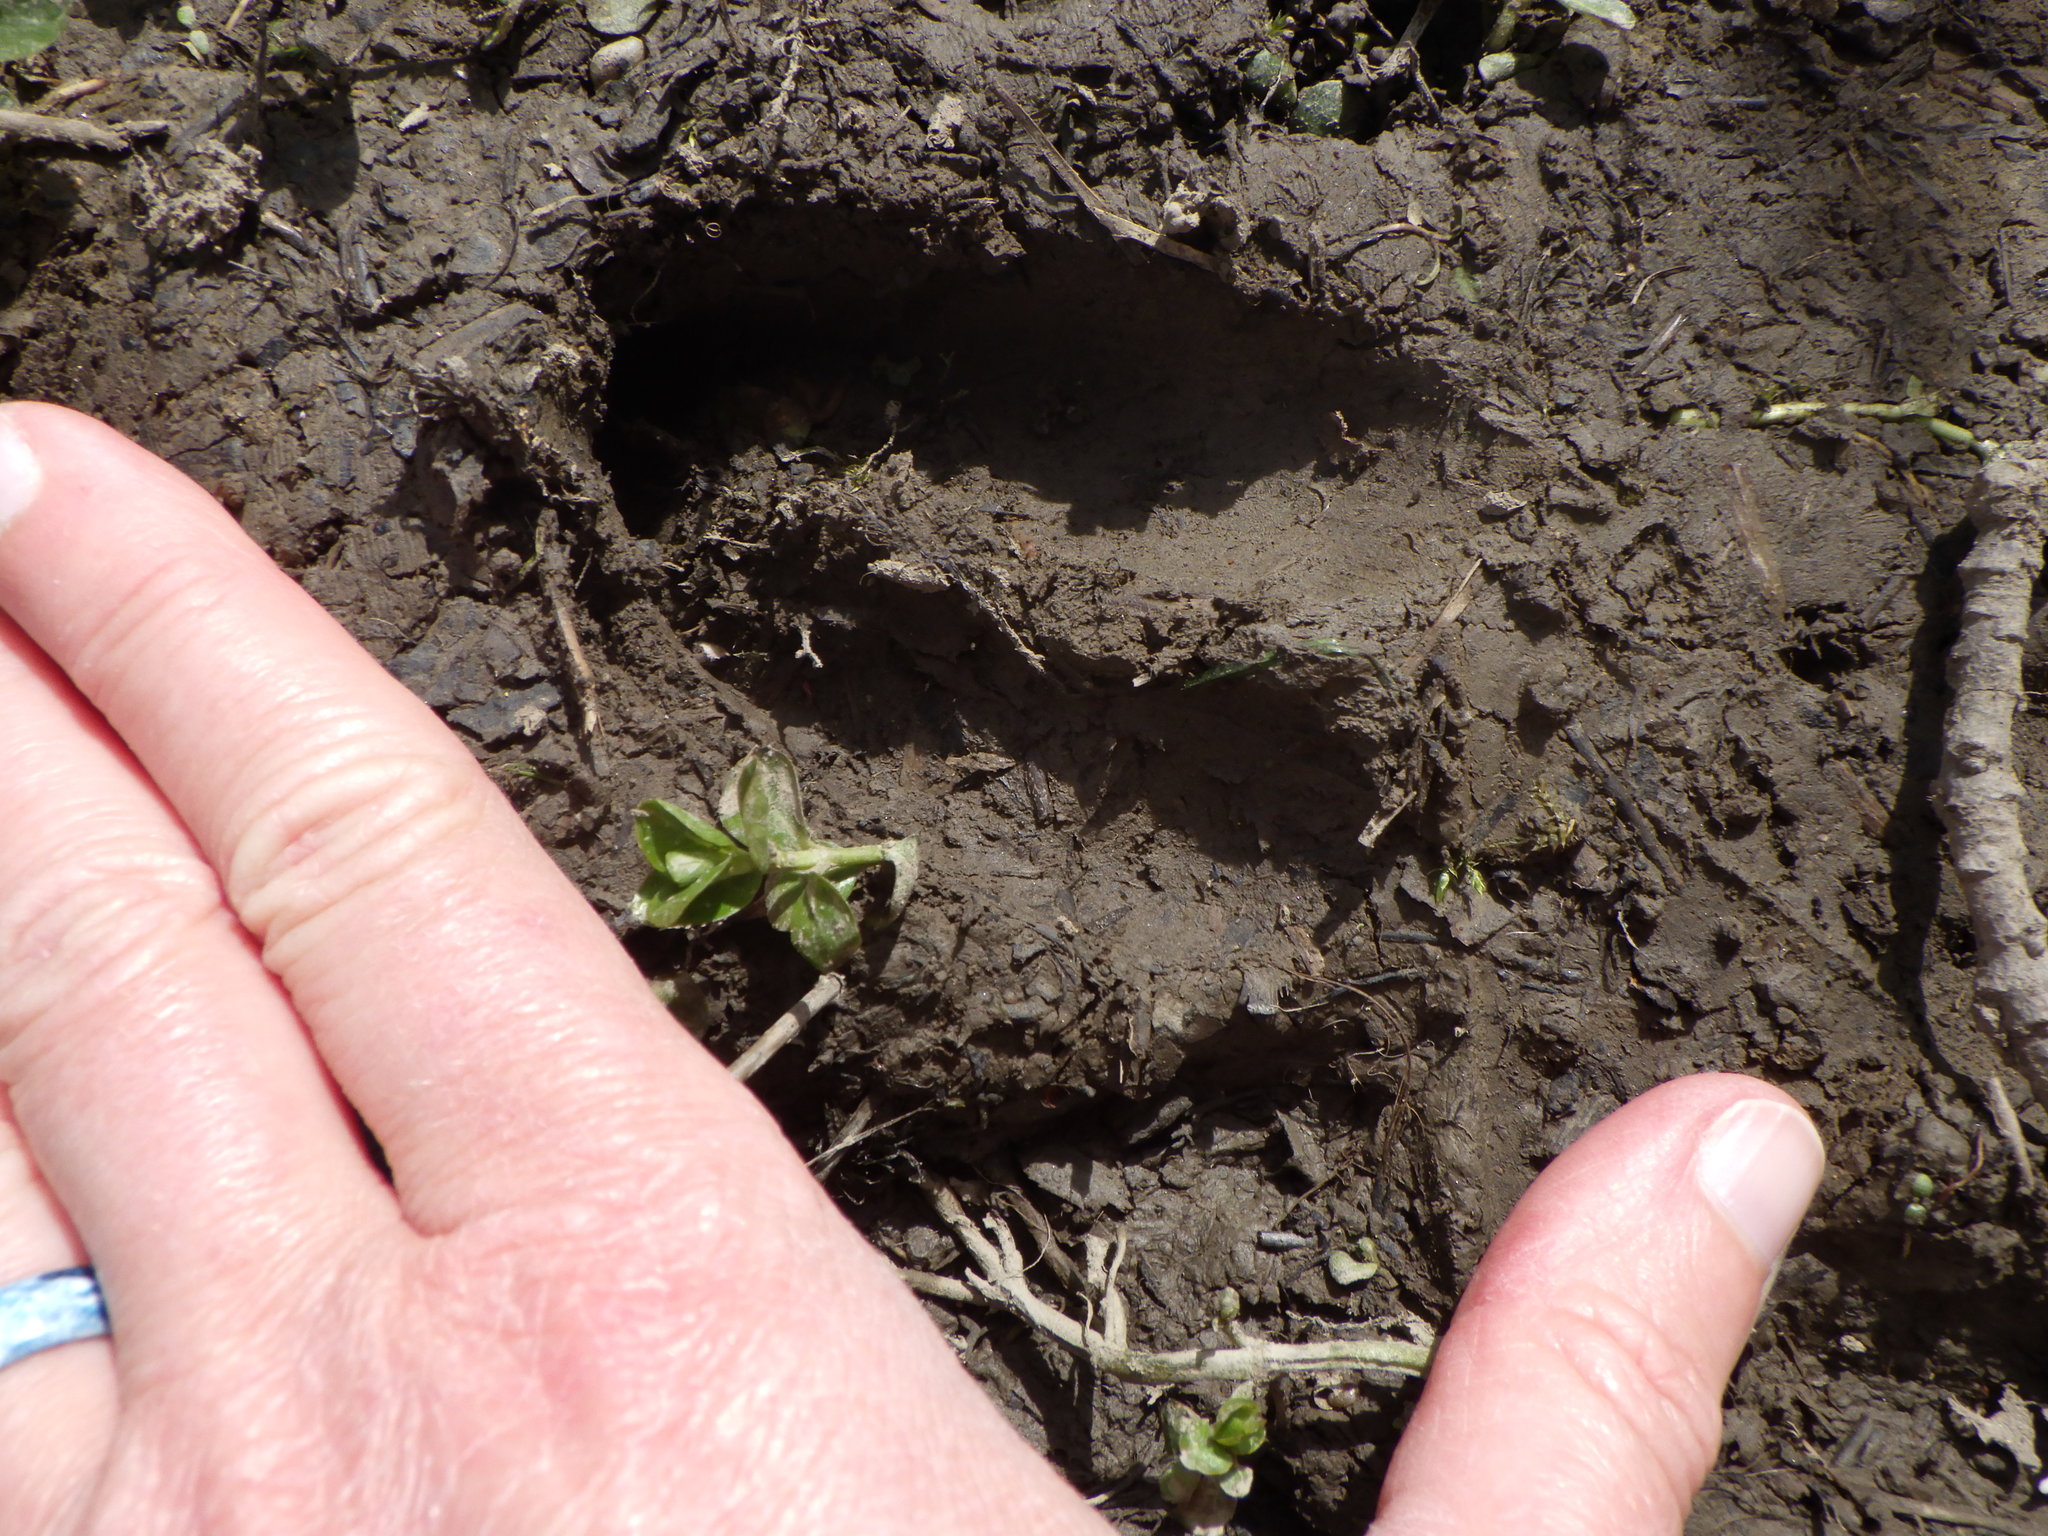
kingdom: Animalia
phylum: Chordata
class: Mammalia
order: Artiodactyla
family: Cervidae
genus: Odocoileus
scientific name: Odocoileus virginianus
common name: White-tailed deer
